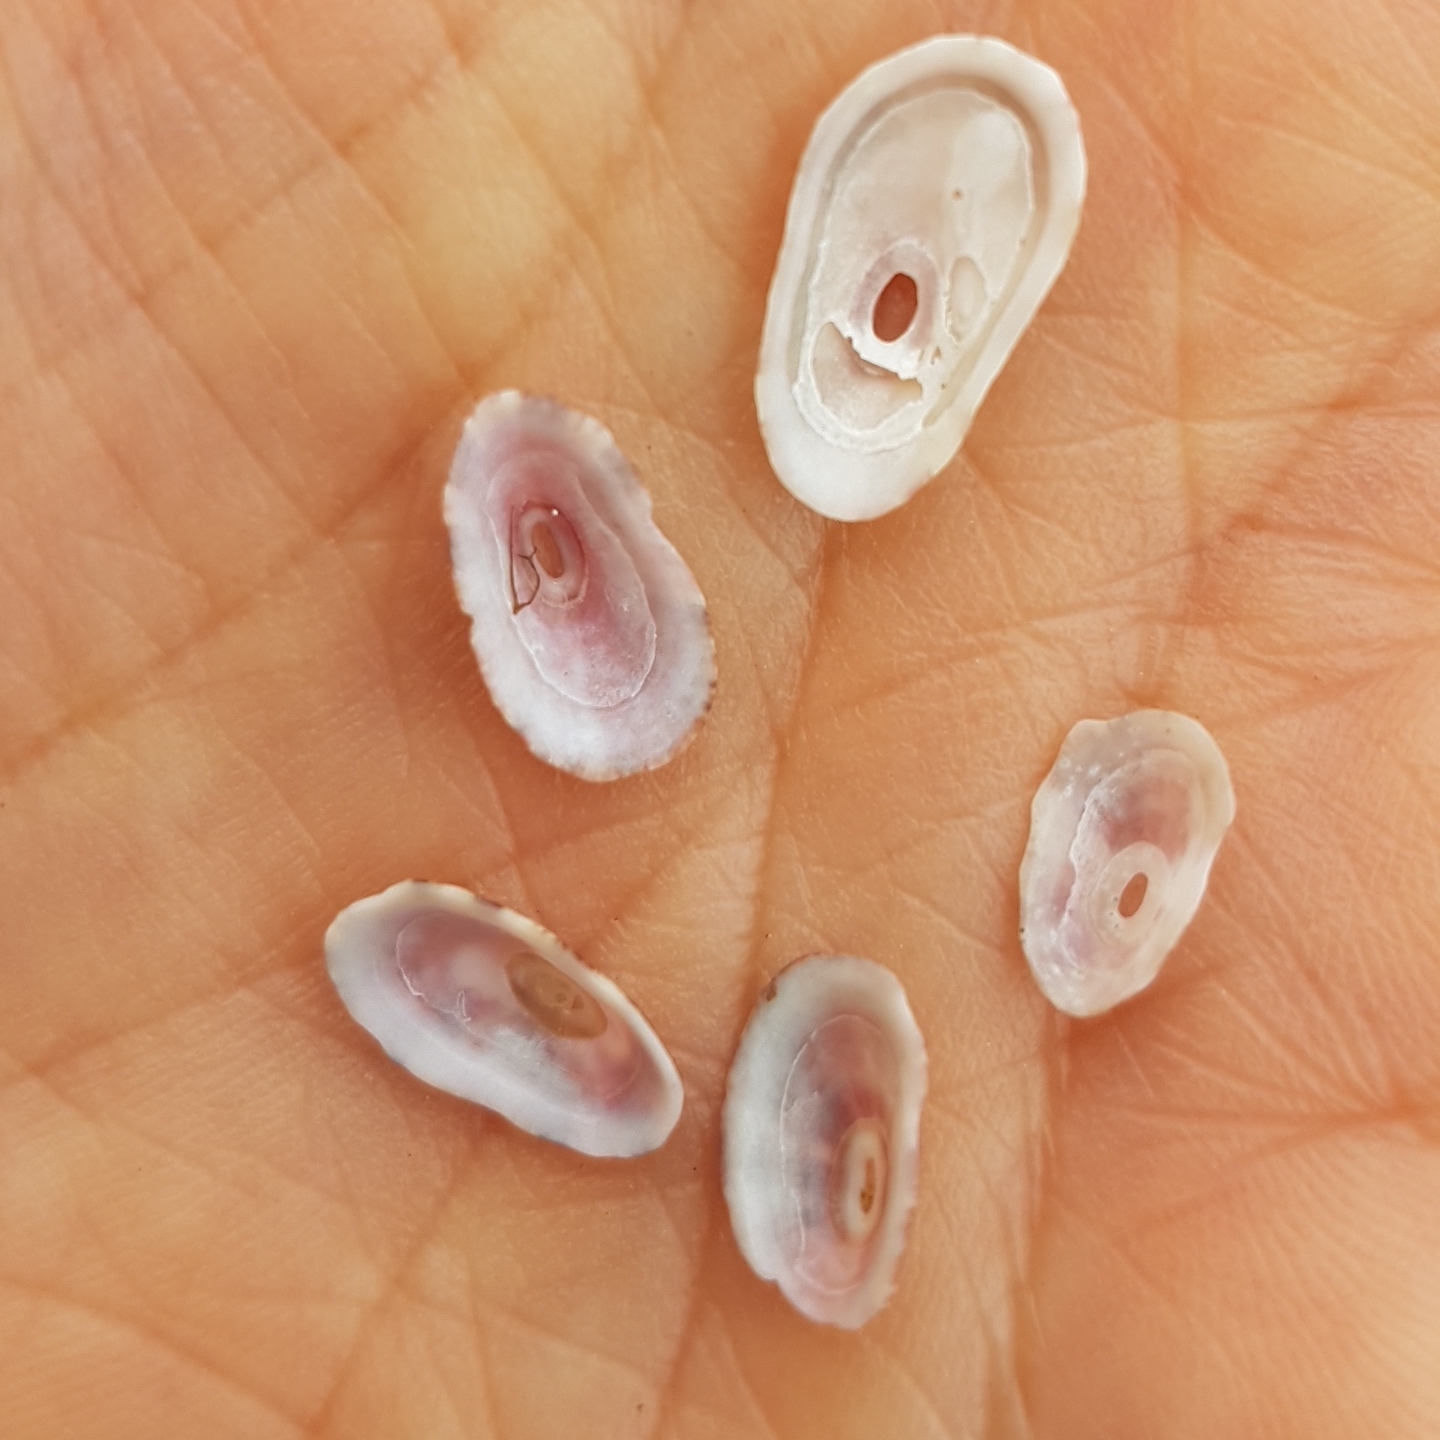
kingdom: Animalia
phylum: Mollusca
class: Gastropoda
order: Lepetellida
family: Fissurellidae
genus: Fissurella
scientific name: Fissurella nubecula
